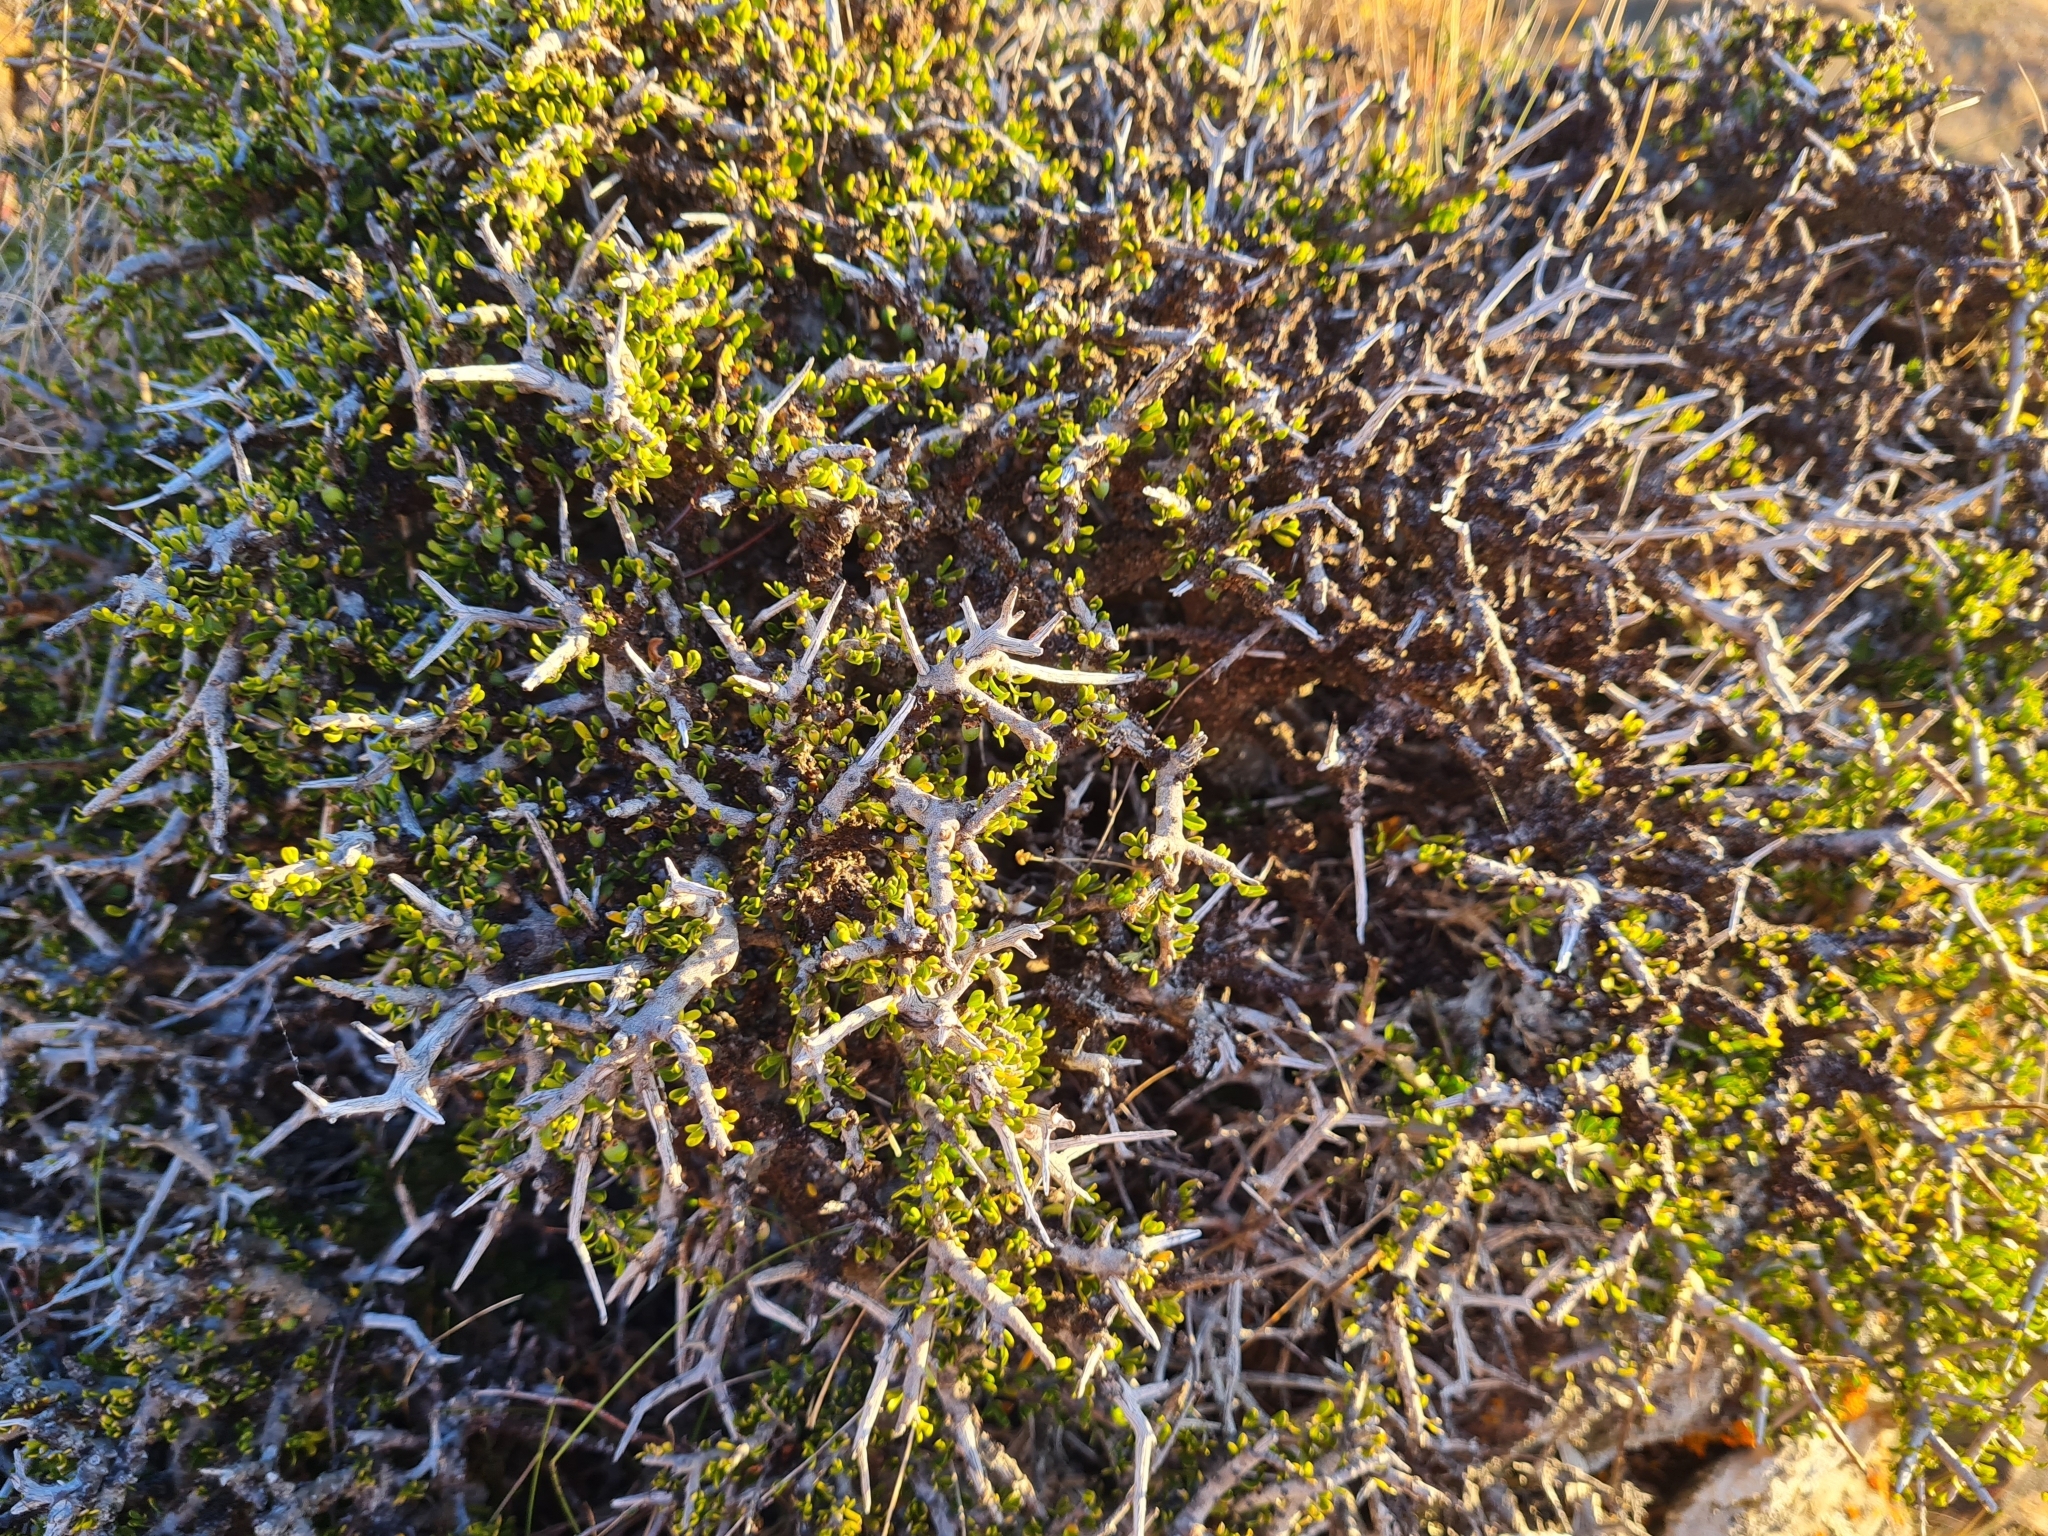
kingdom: Plantae
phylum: Tracheophyta
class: Magnoliopsida
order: Malpighiales
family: Violaceae
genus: Melicytus
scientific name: Melicytus alpinus
